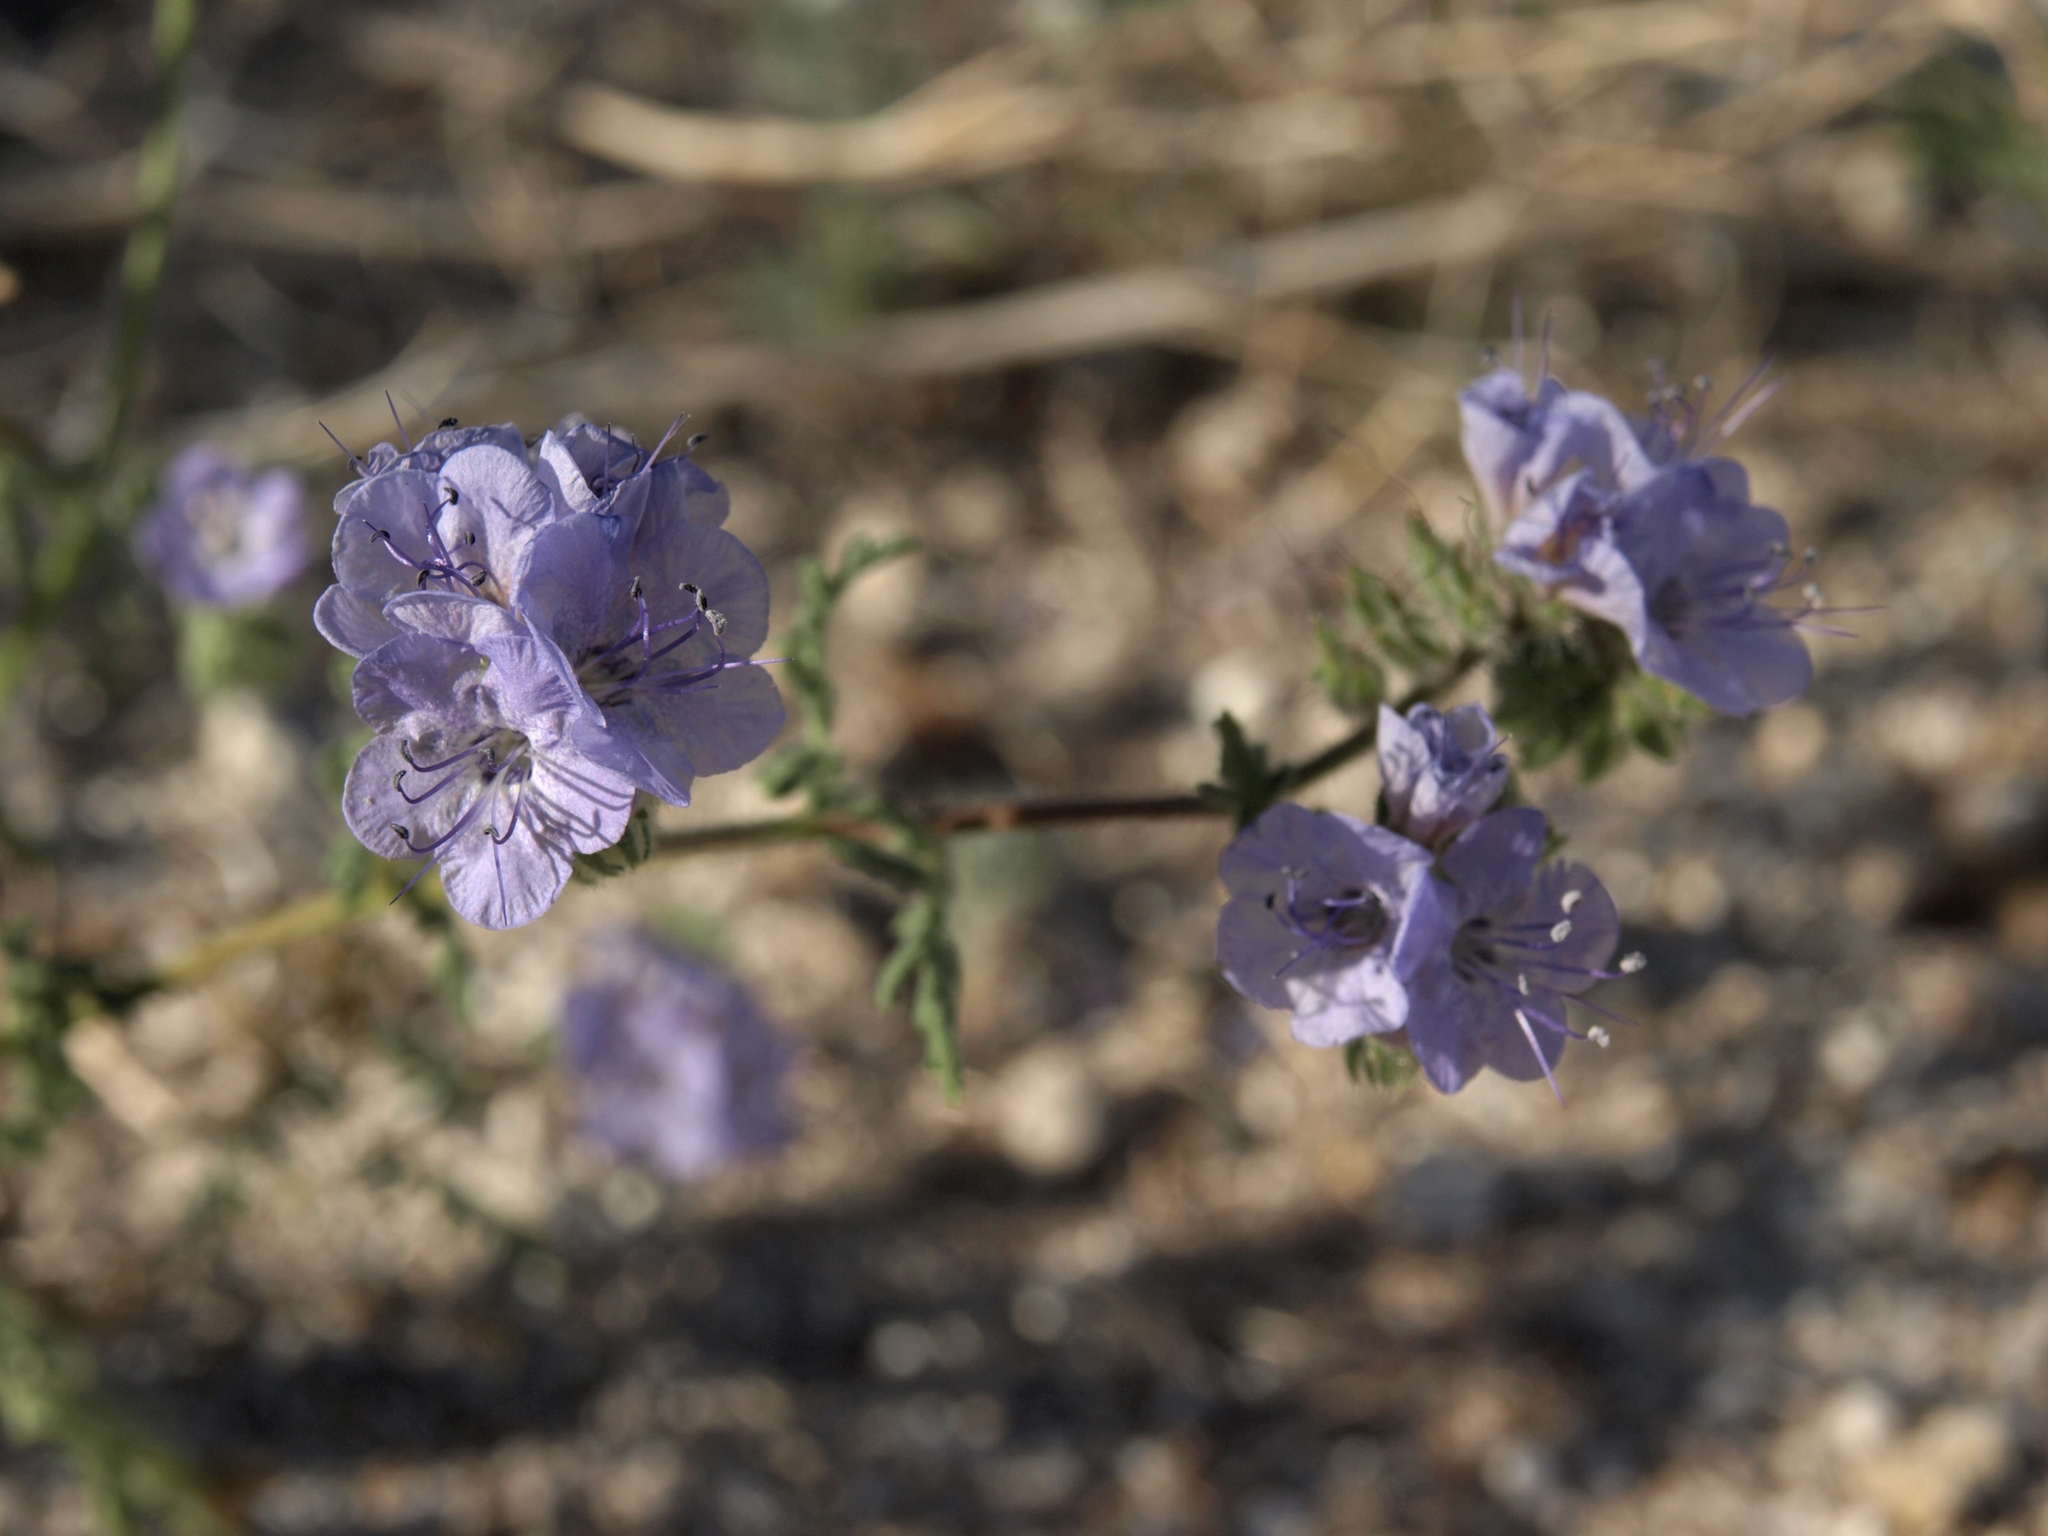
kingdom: Plantae
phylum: Tracheophyta
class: Magnoliopsida
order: Boraginales
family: Hydrophyllaceae
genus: Phacelia
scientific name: Phacelia distans
